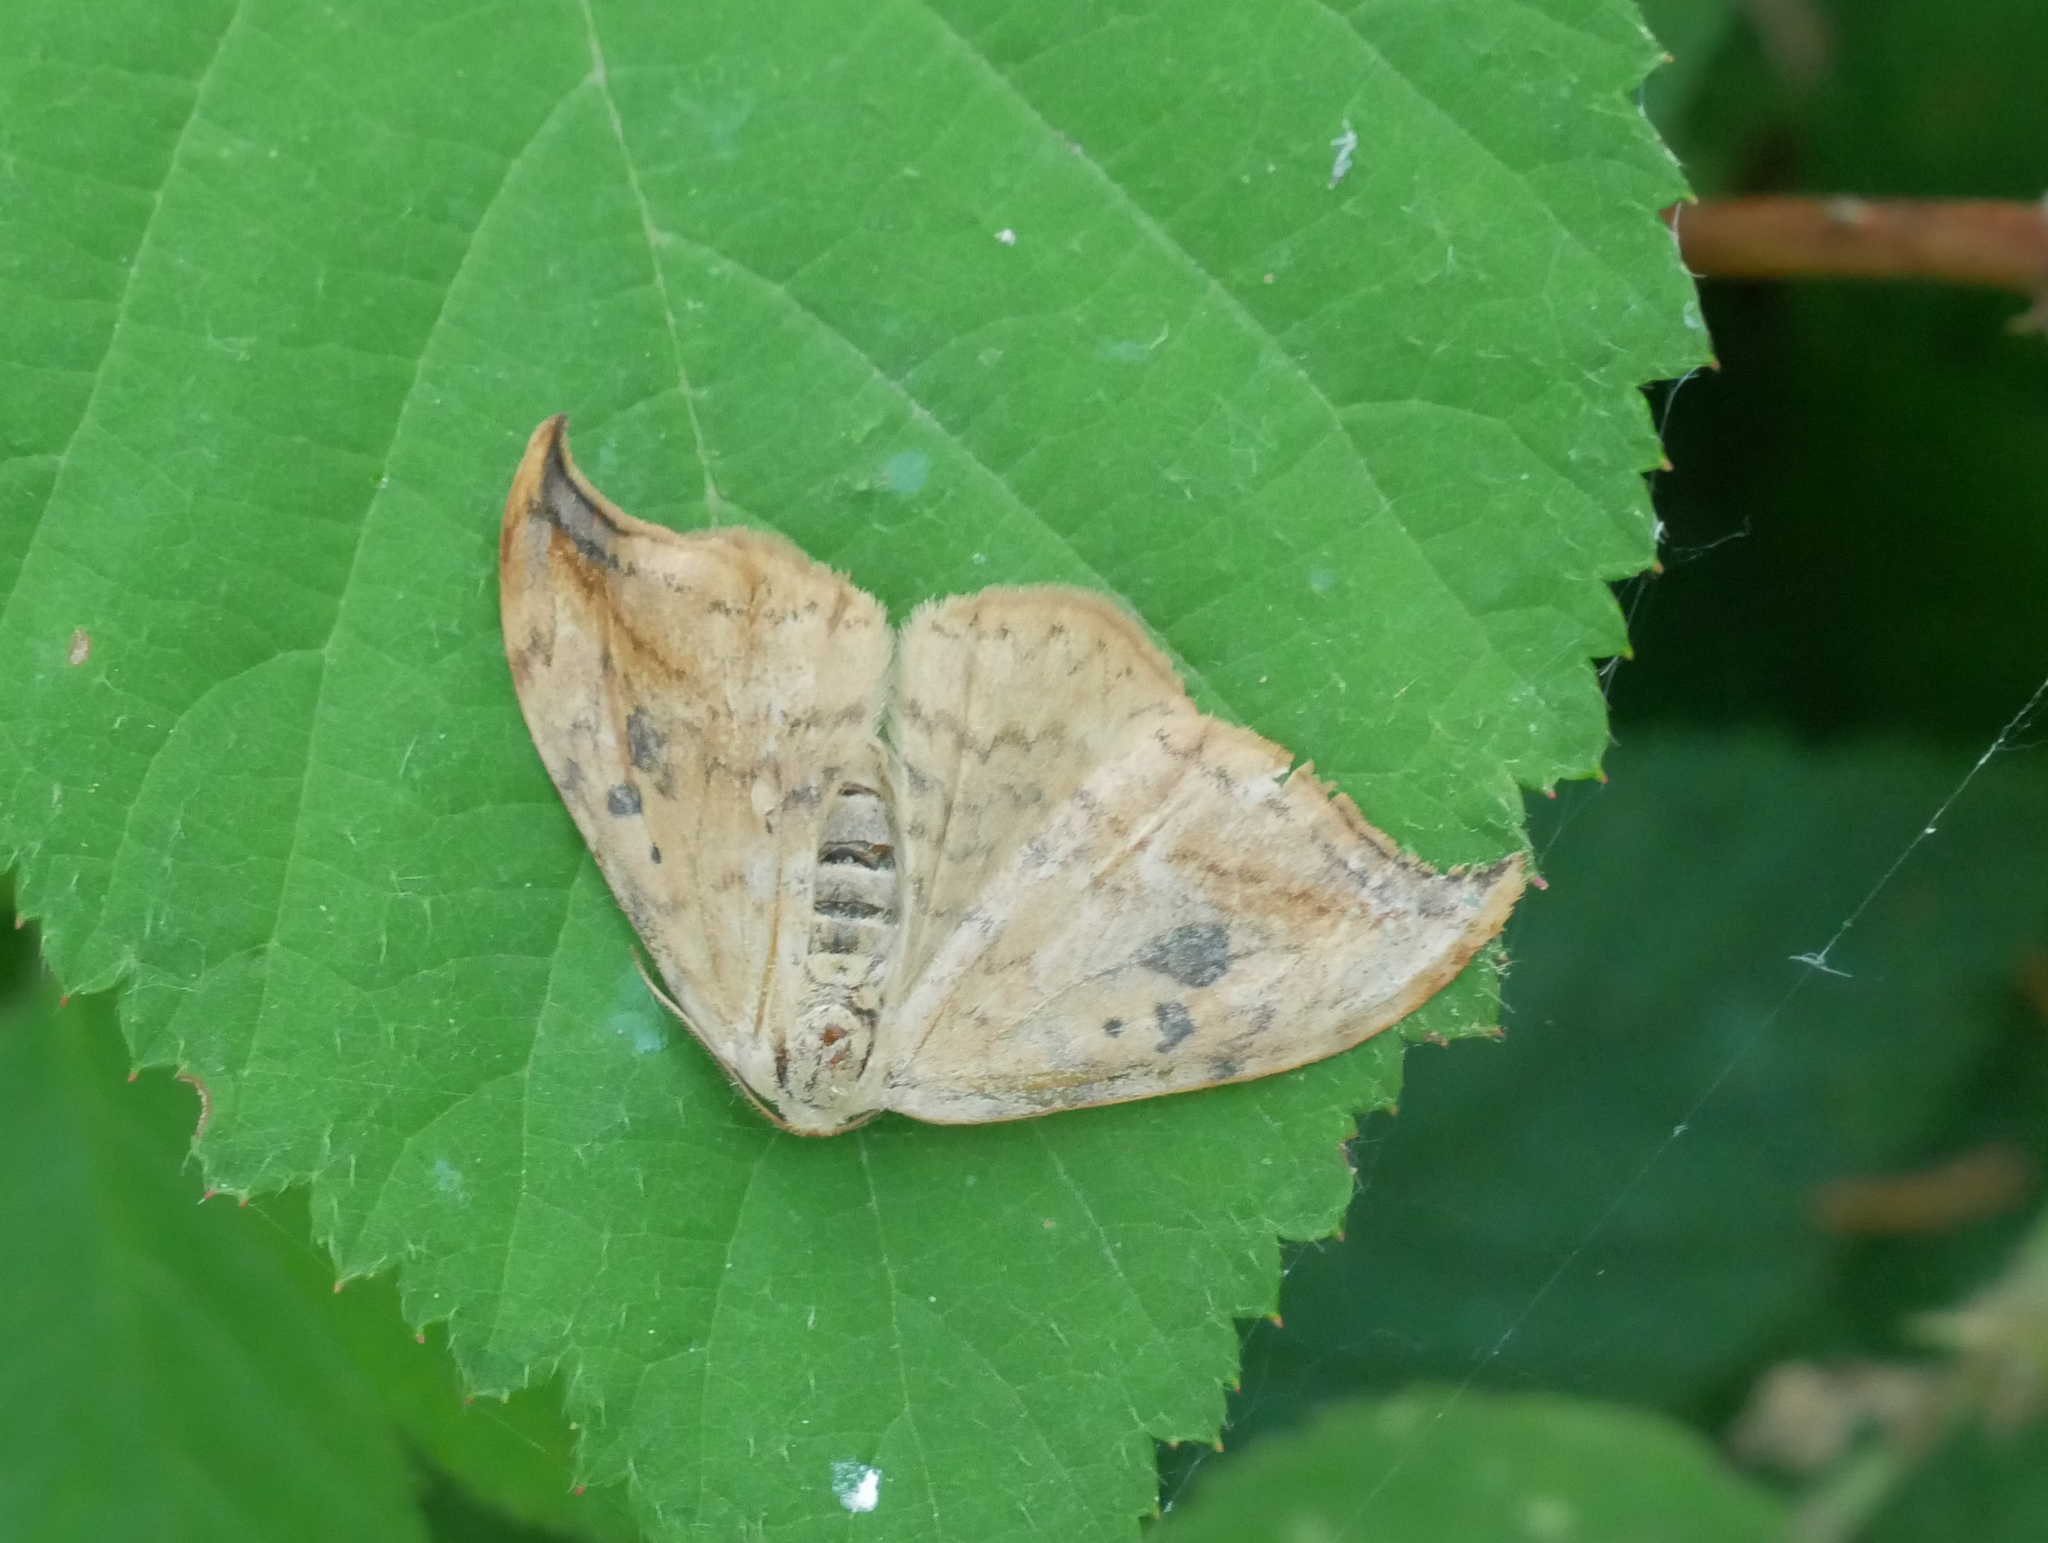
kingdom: Animalia
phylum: Arthropoda
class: Insecta
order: Lepidoptera
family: Drepanidae
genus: Drepana
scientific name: Drepana falcataria
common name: Pebble hook-tip
